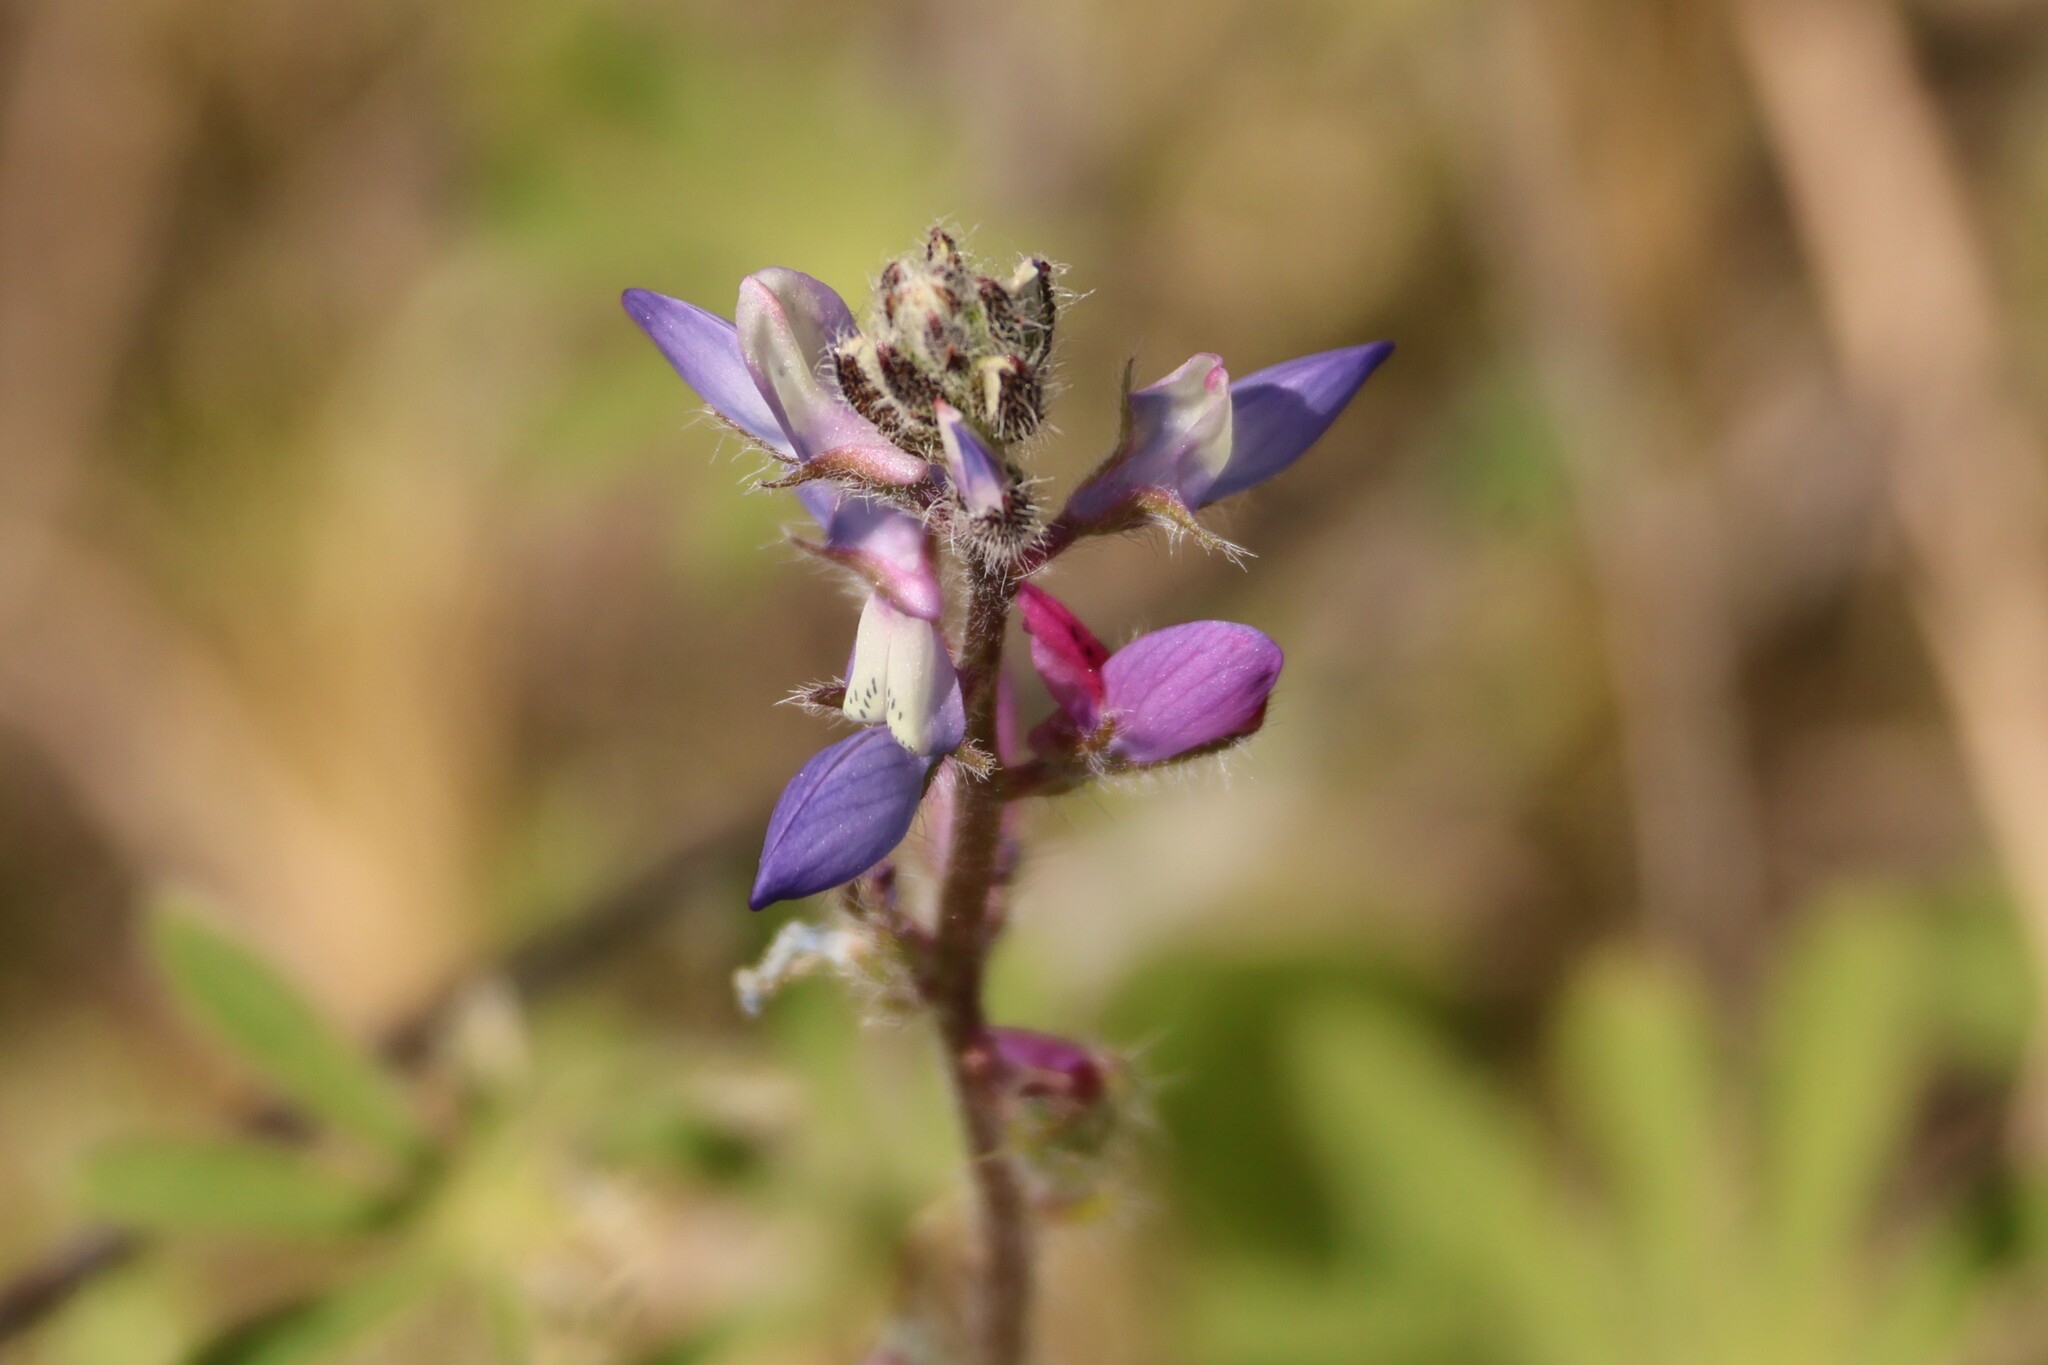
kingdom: Plantae
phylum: Tracheophyta
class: Magnoliopsida
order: Fabales
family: Fabaceae
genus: Lupinus
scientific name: Lupinus bicolor
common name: Miniature lupine
